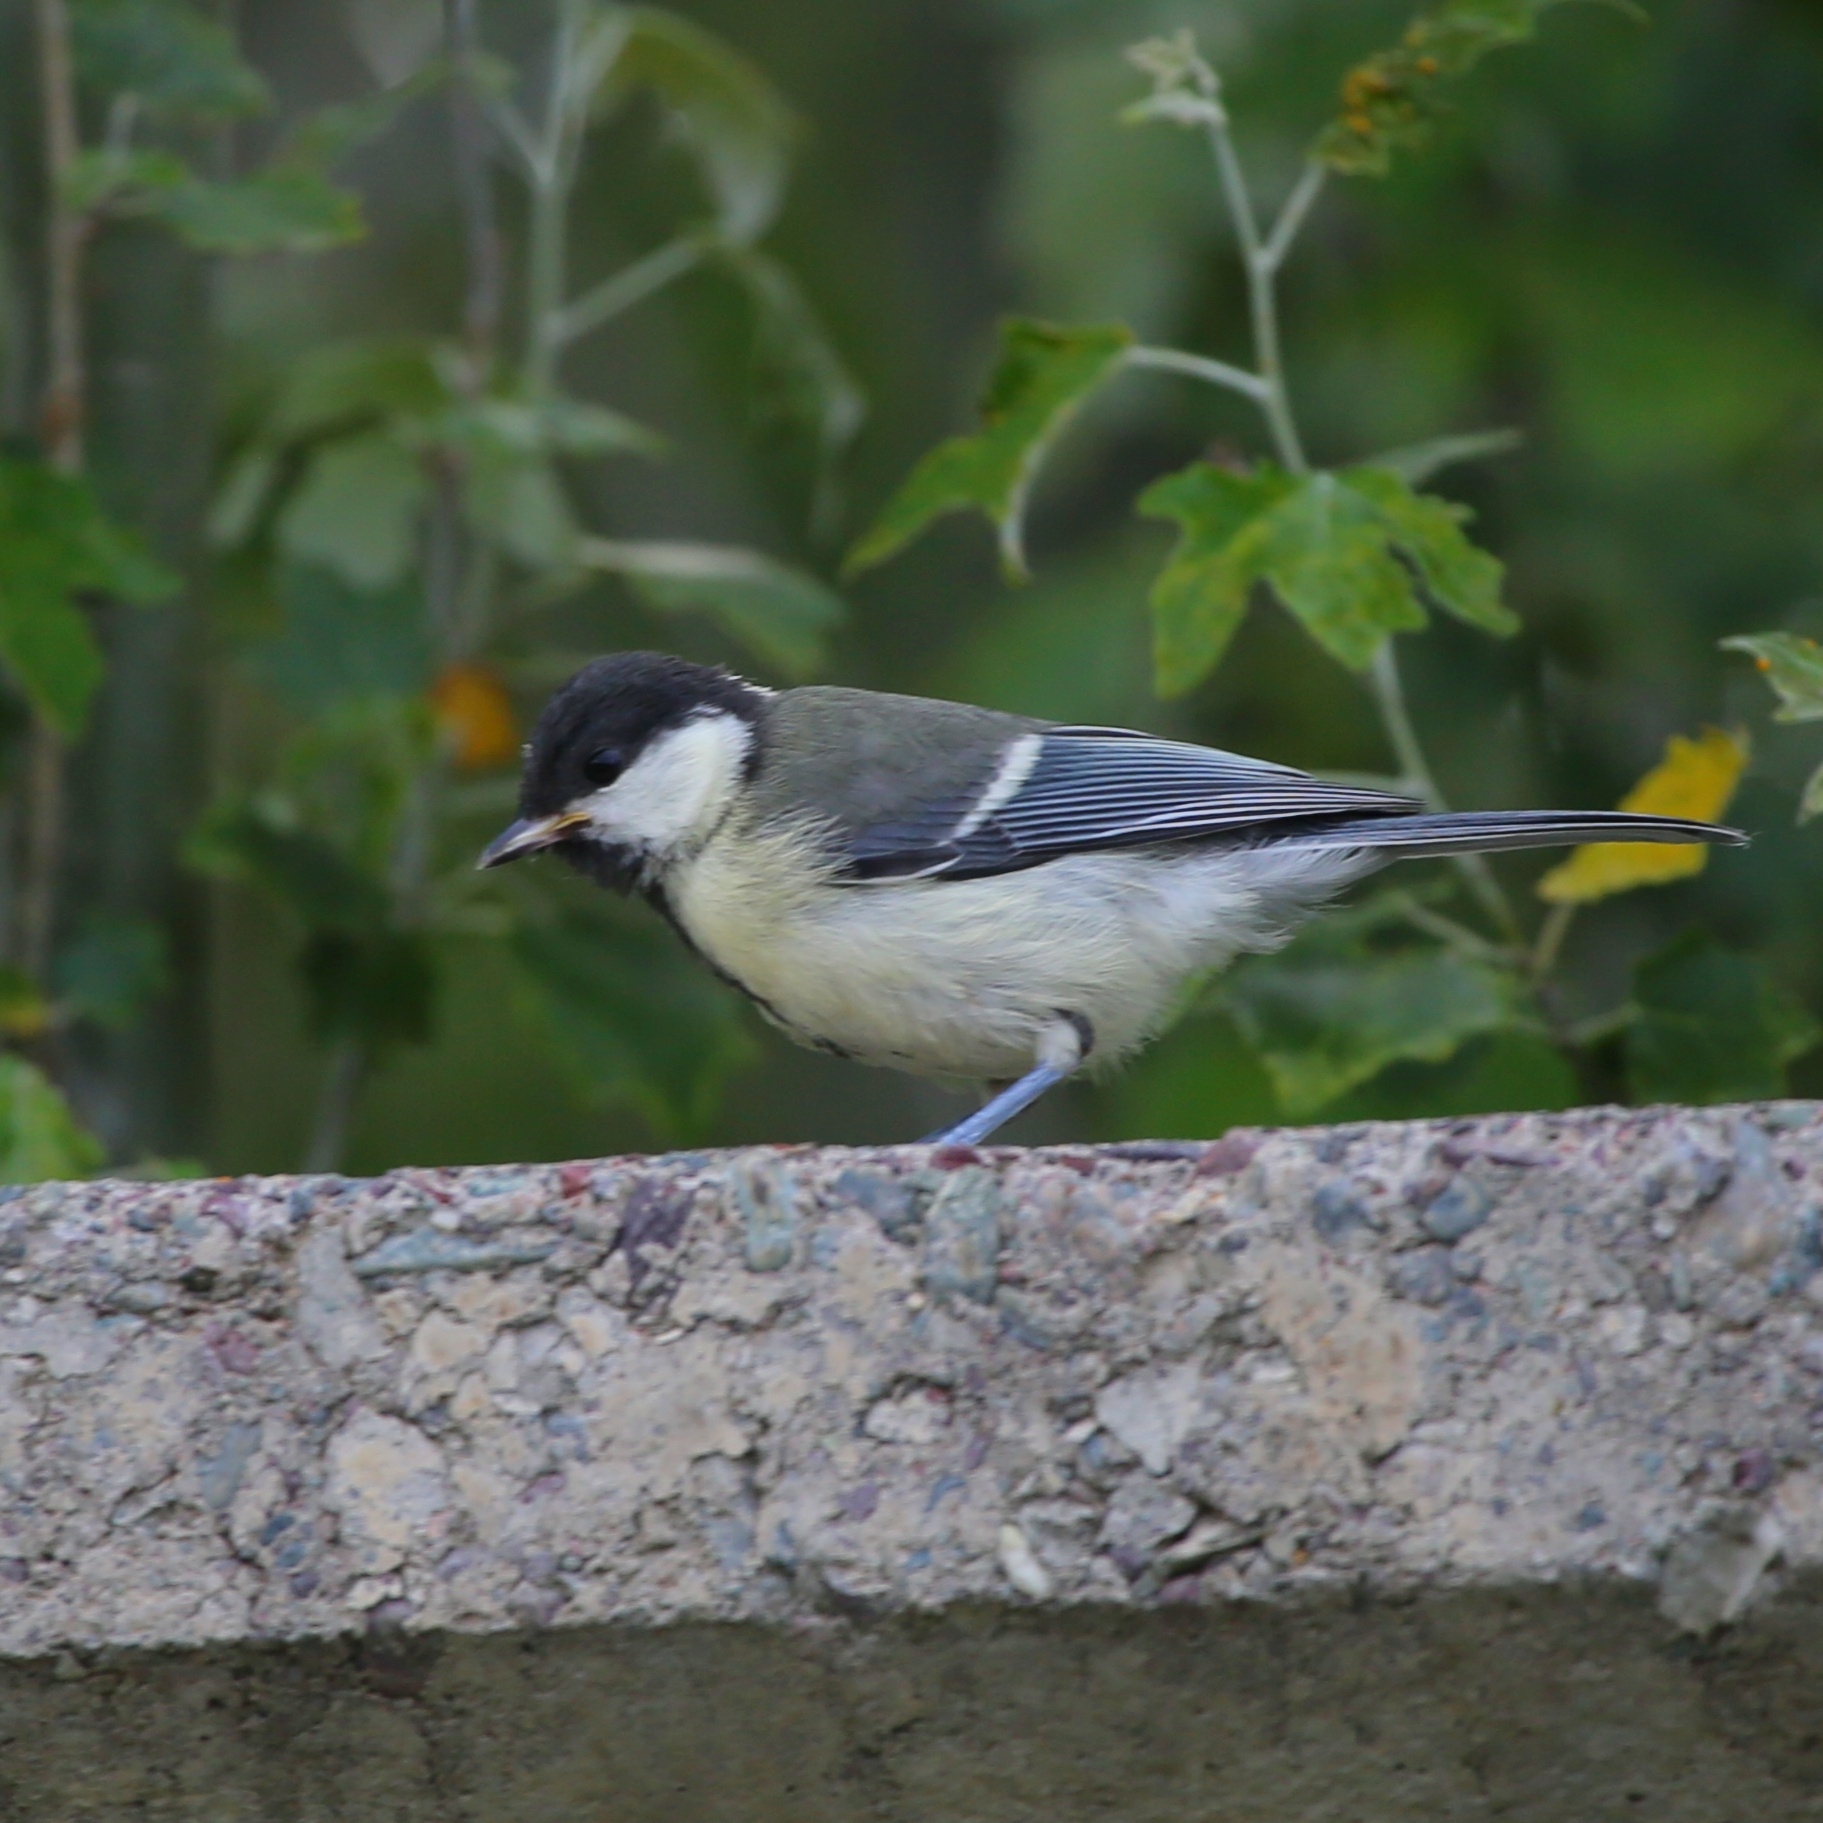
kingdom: Animalia
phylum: Chordata
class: Aves
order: Passeriformes
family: Paridae
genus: Parus
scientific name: Parus major
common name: Great tit
